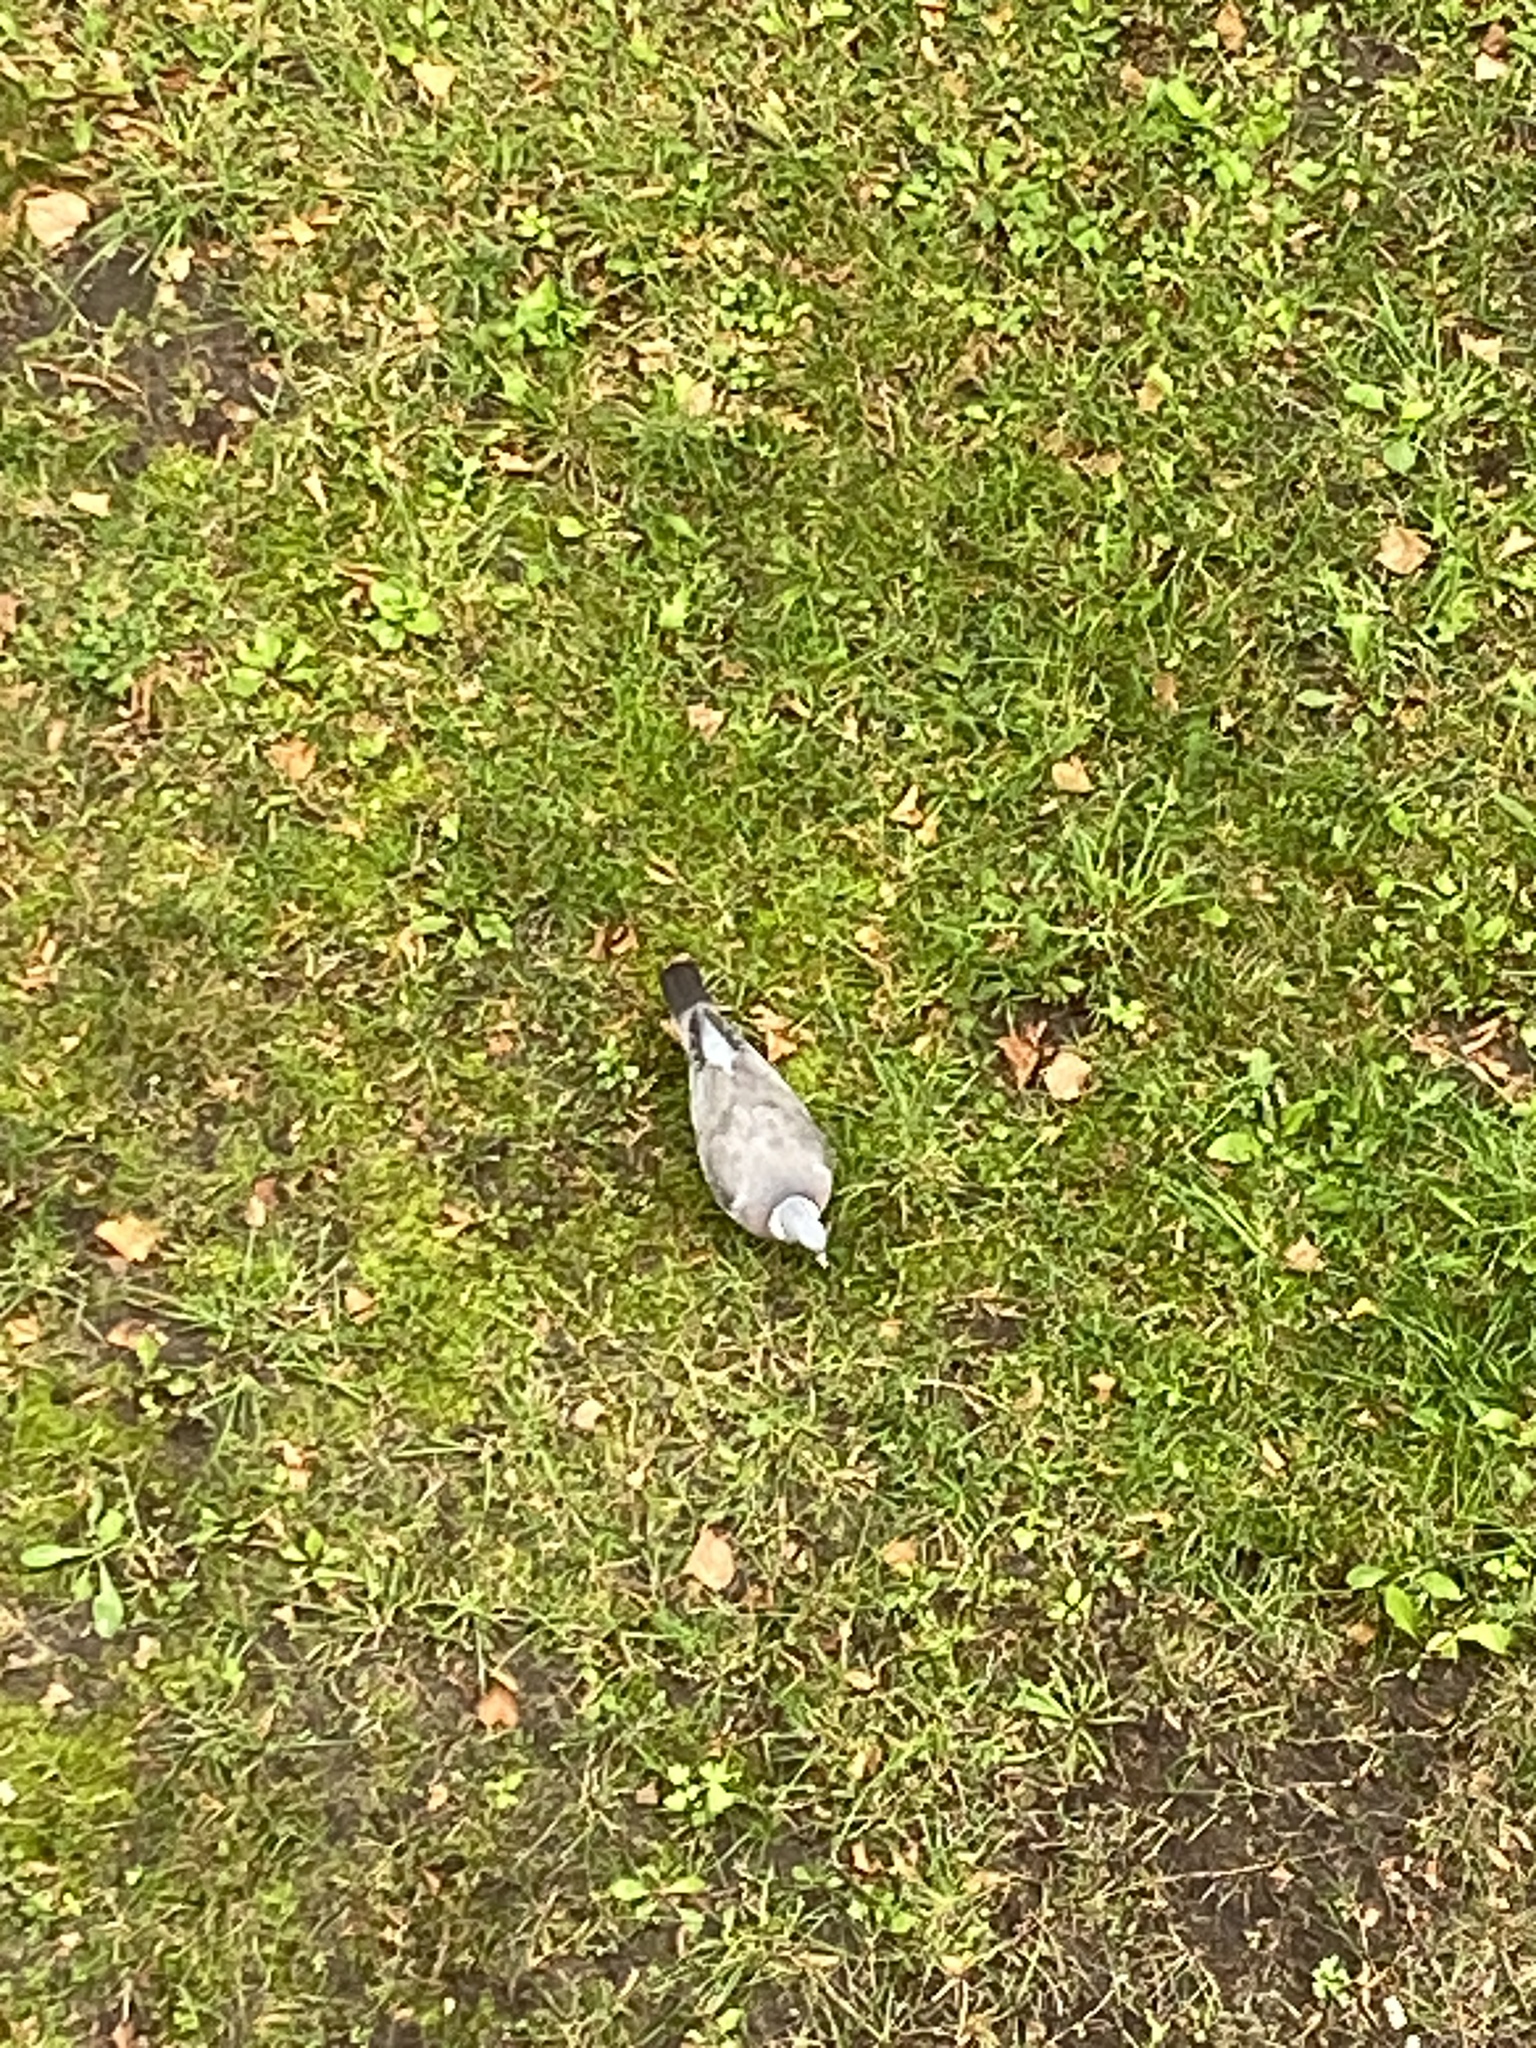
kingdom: Animalia
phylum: Chordata
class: Aves
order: Columbiformes
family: Columbidae
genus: Columba
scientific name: Columba palumbus
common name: Common wood pigeon
